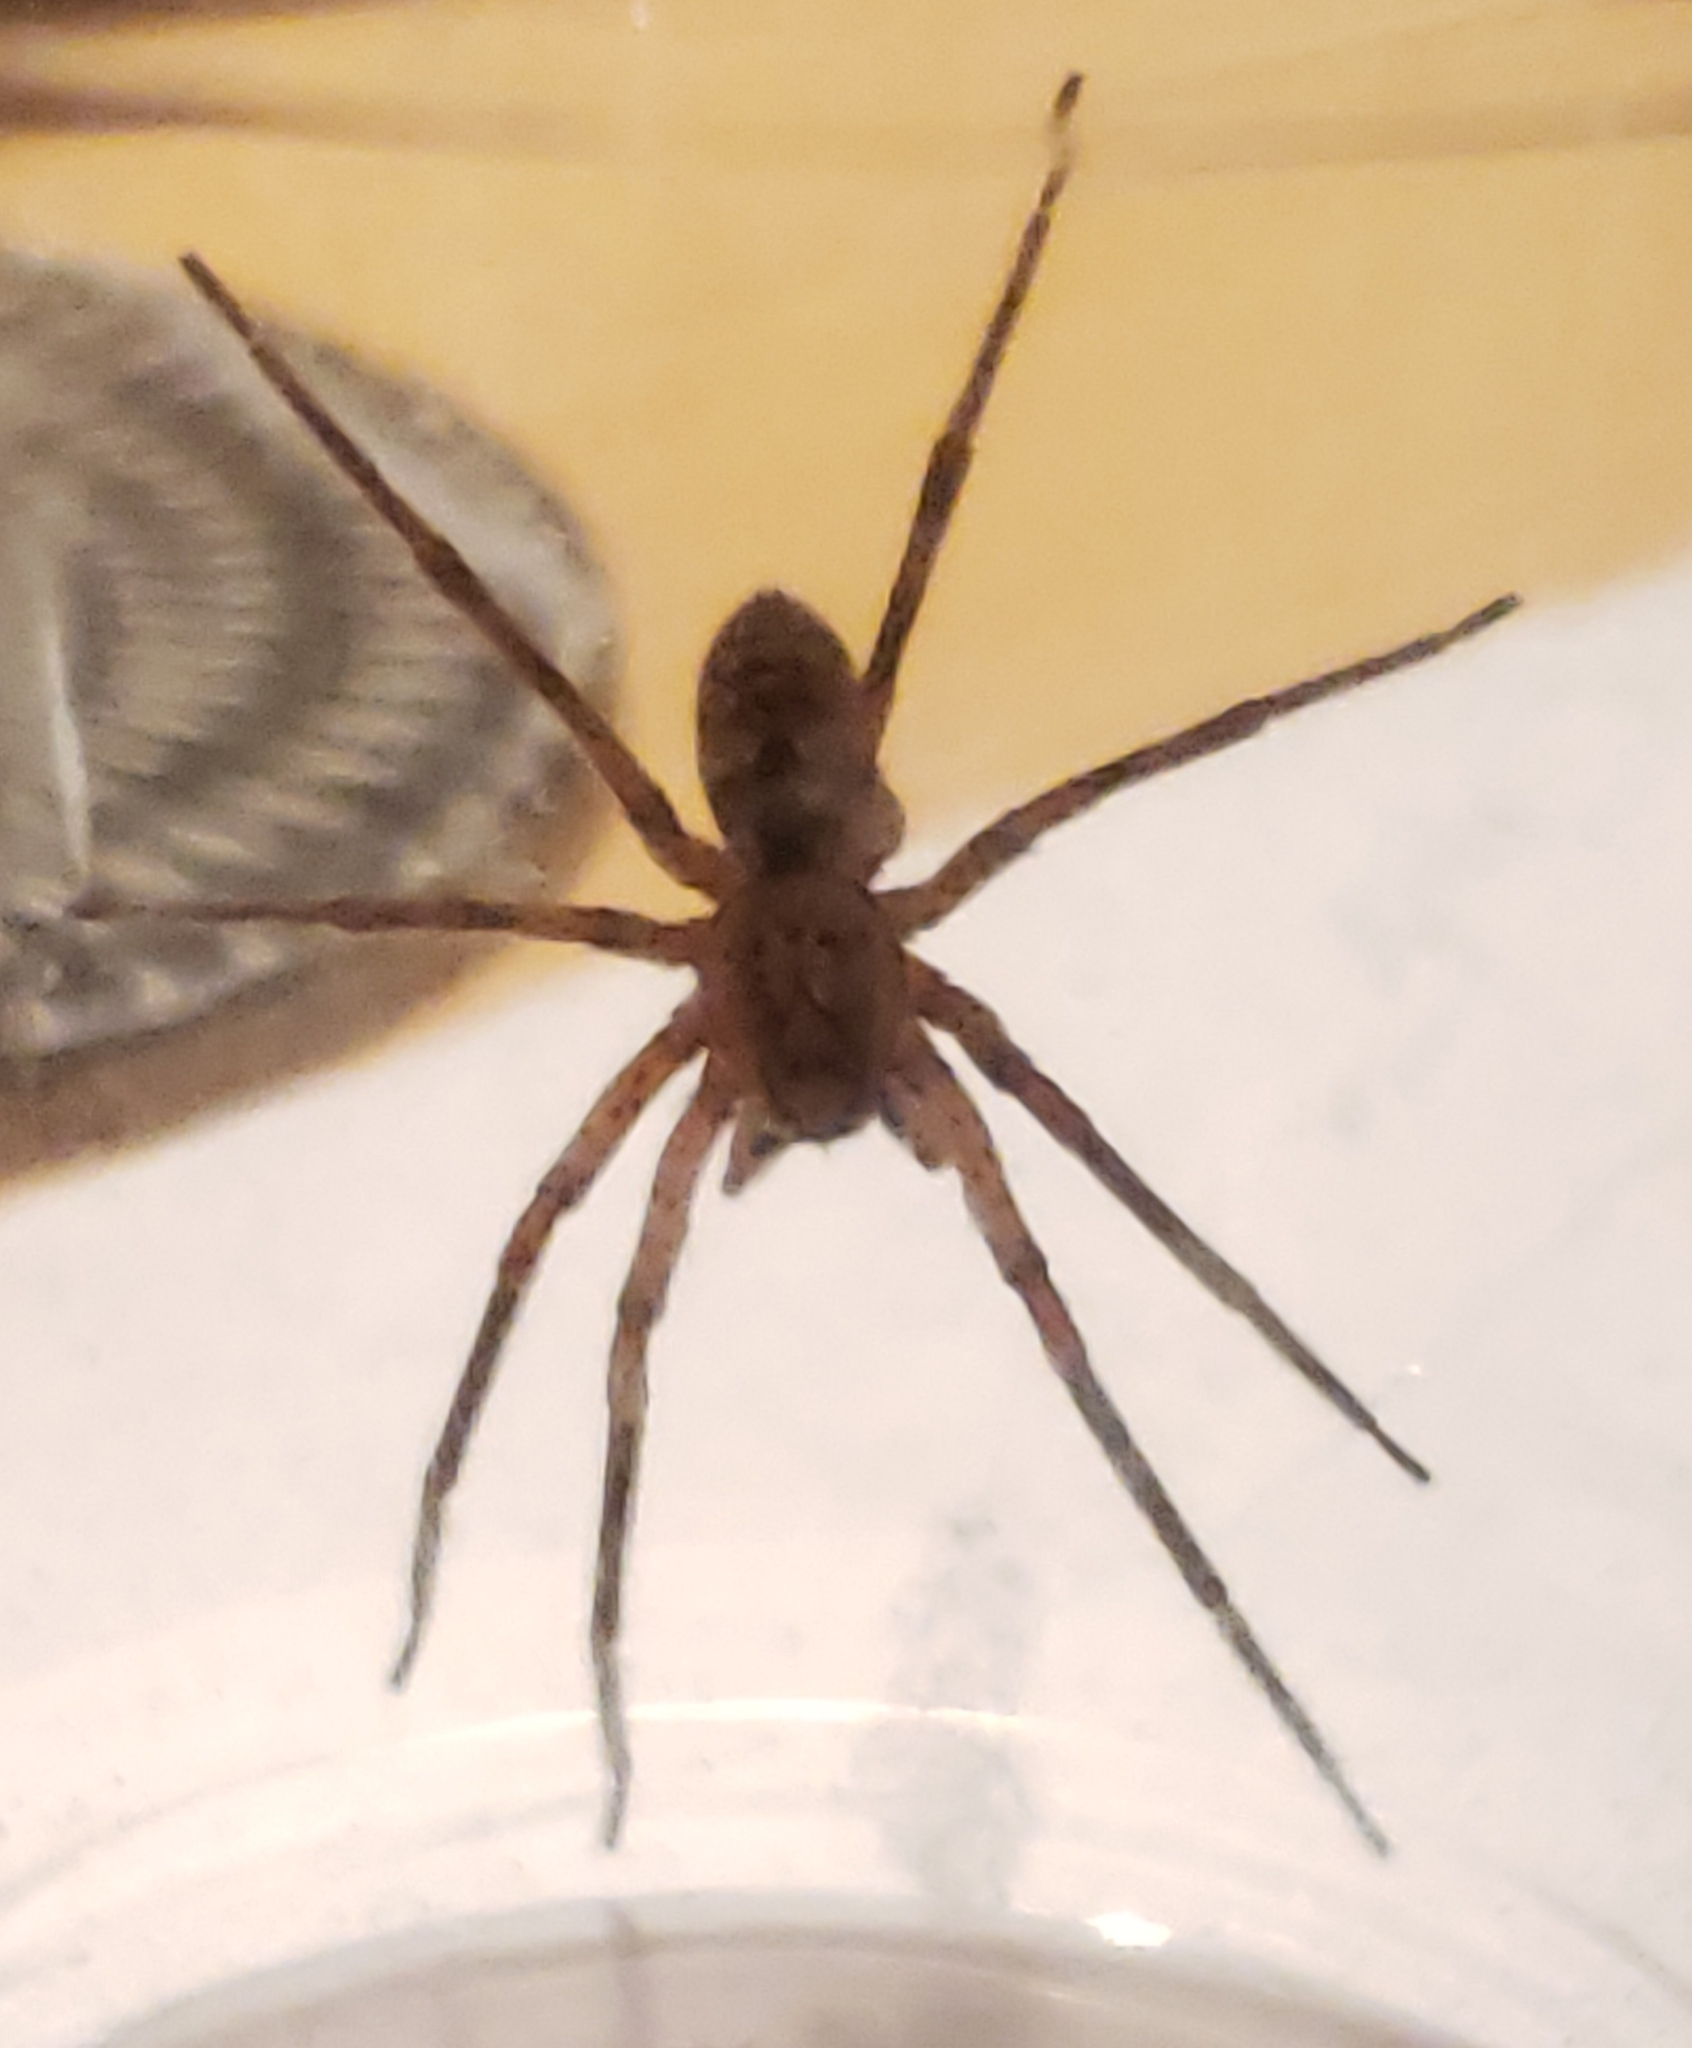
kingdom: Animalia
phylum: Arthropoda
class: Arachnida
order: Araneae
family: Zoropsidae
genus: Zoropsis
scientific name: Zoropsis spinimana
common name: Zoropsid spider
